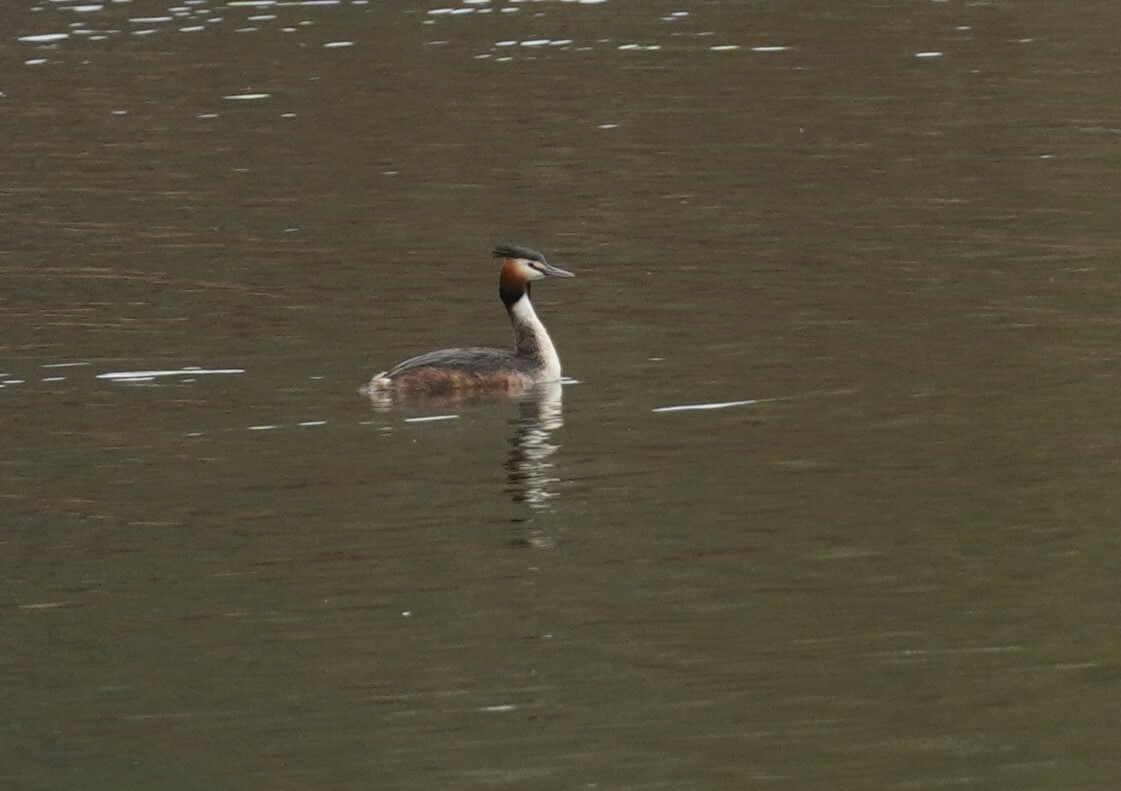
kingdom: Animalia
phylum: Chordata
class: Aves
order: Podicipediformes
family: Podicipedidae
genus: Podiceps
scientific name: Podiceps cristatus
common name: Great crested grebe
